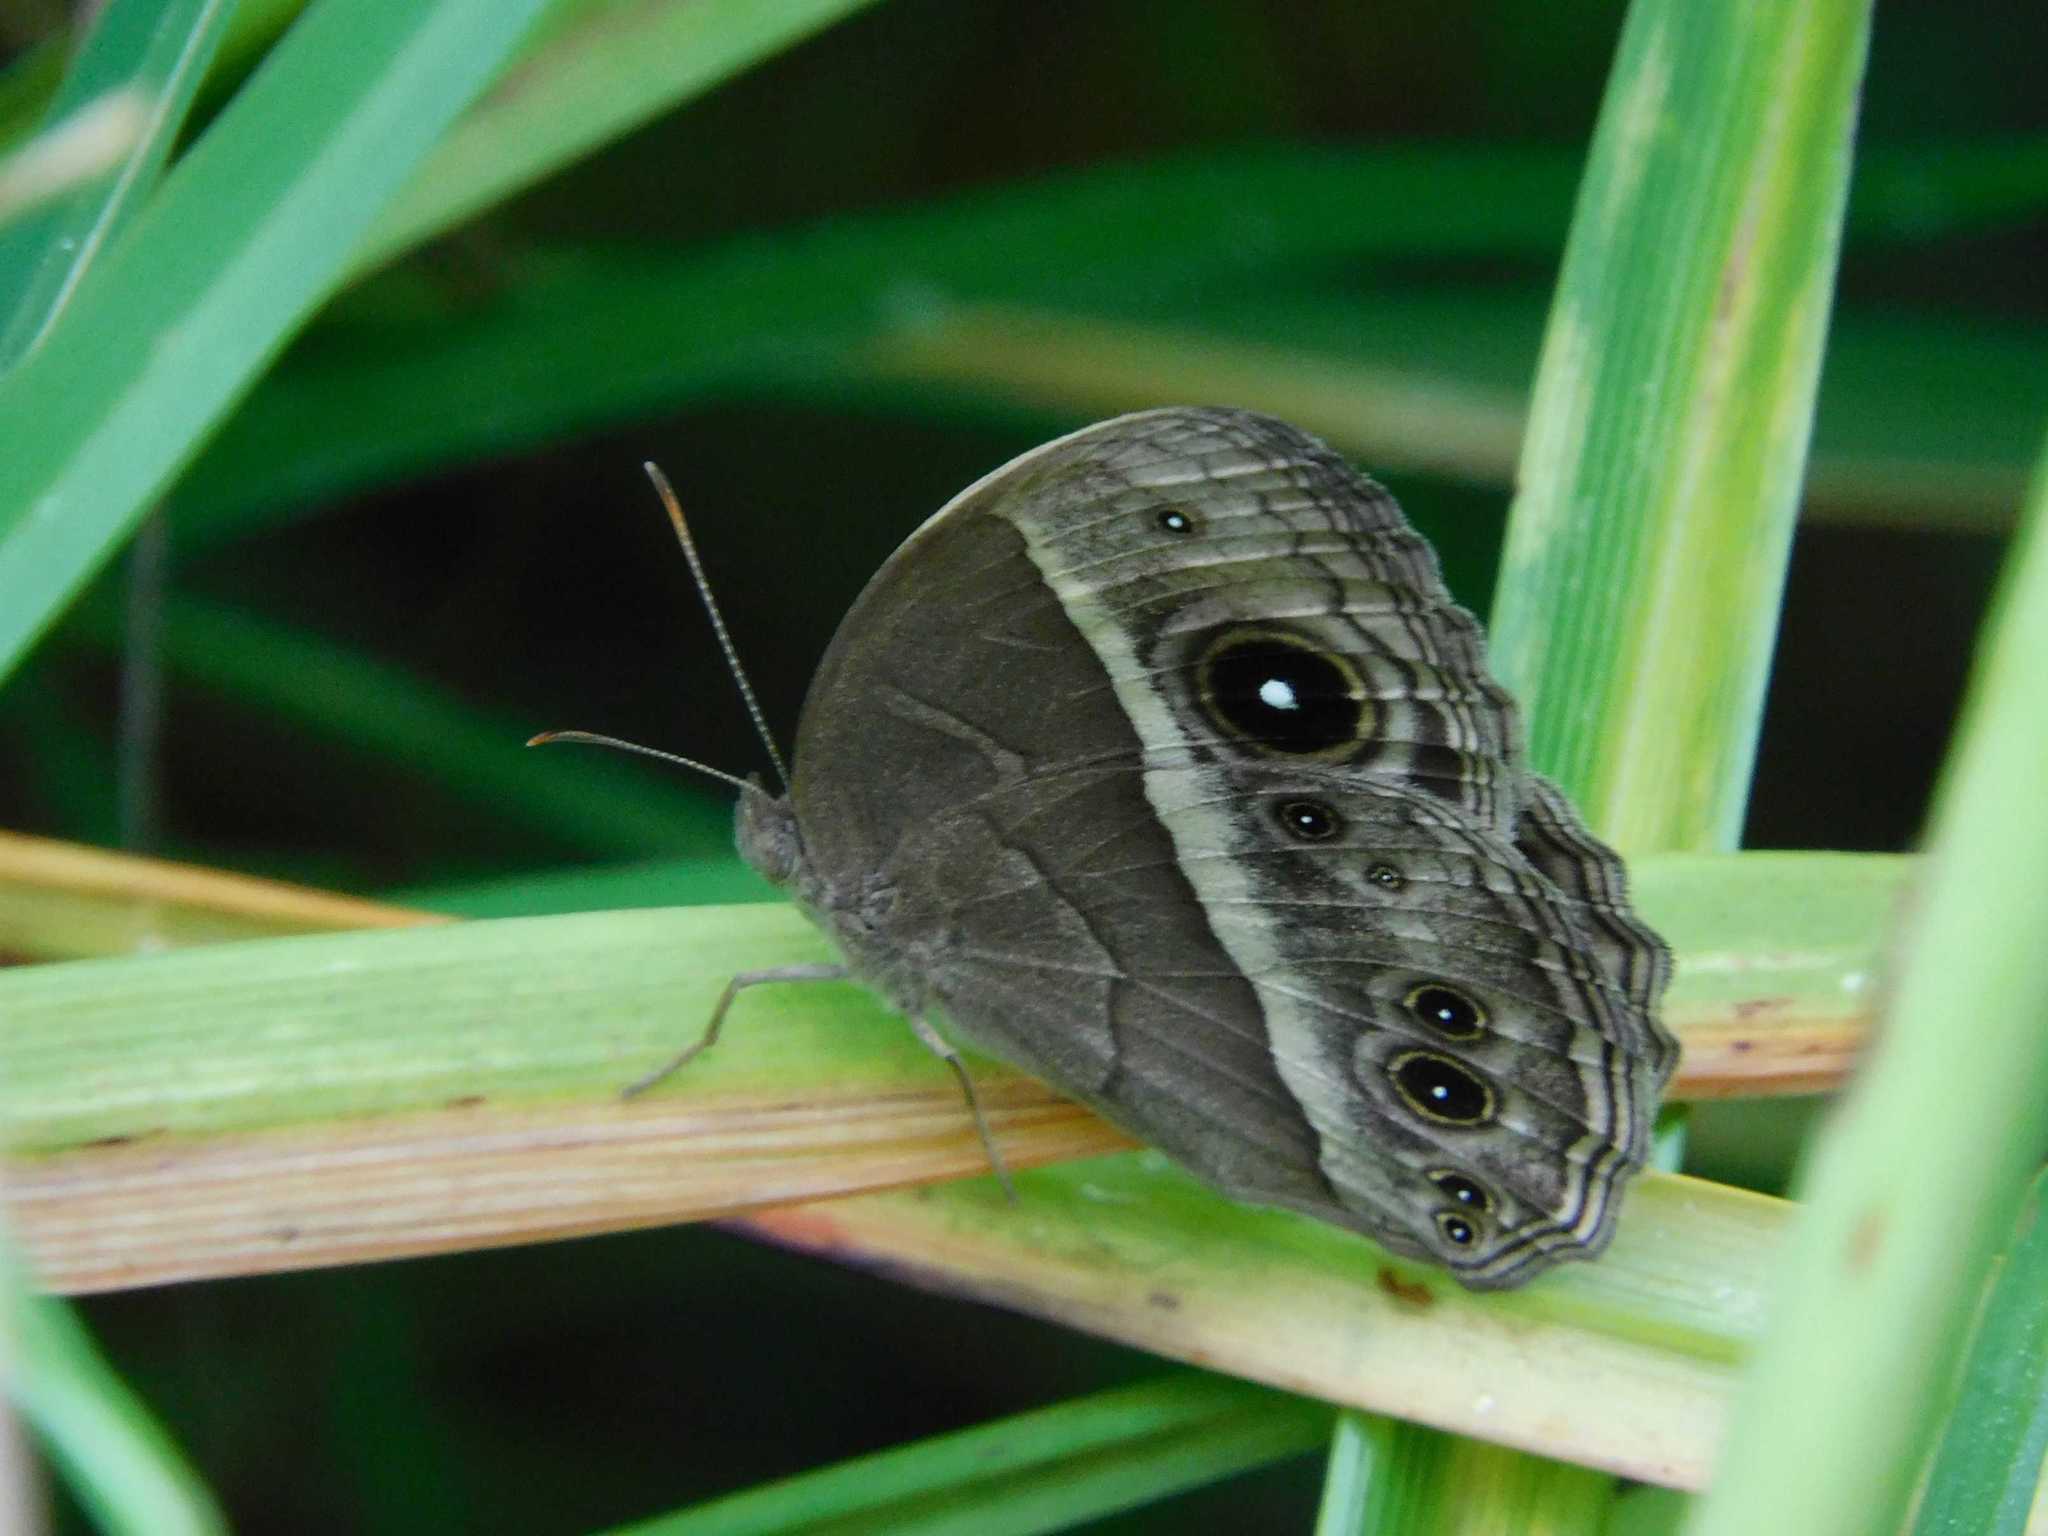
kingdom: Animalia
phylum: Arthropoda
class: Insecta
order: Lepidoptera
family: Nymphalidae
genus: Mycalesis
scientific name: Mycalesis rhacotis
